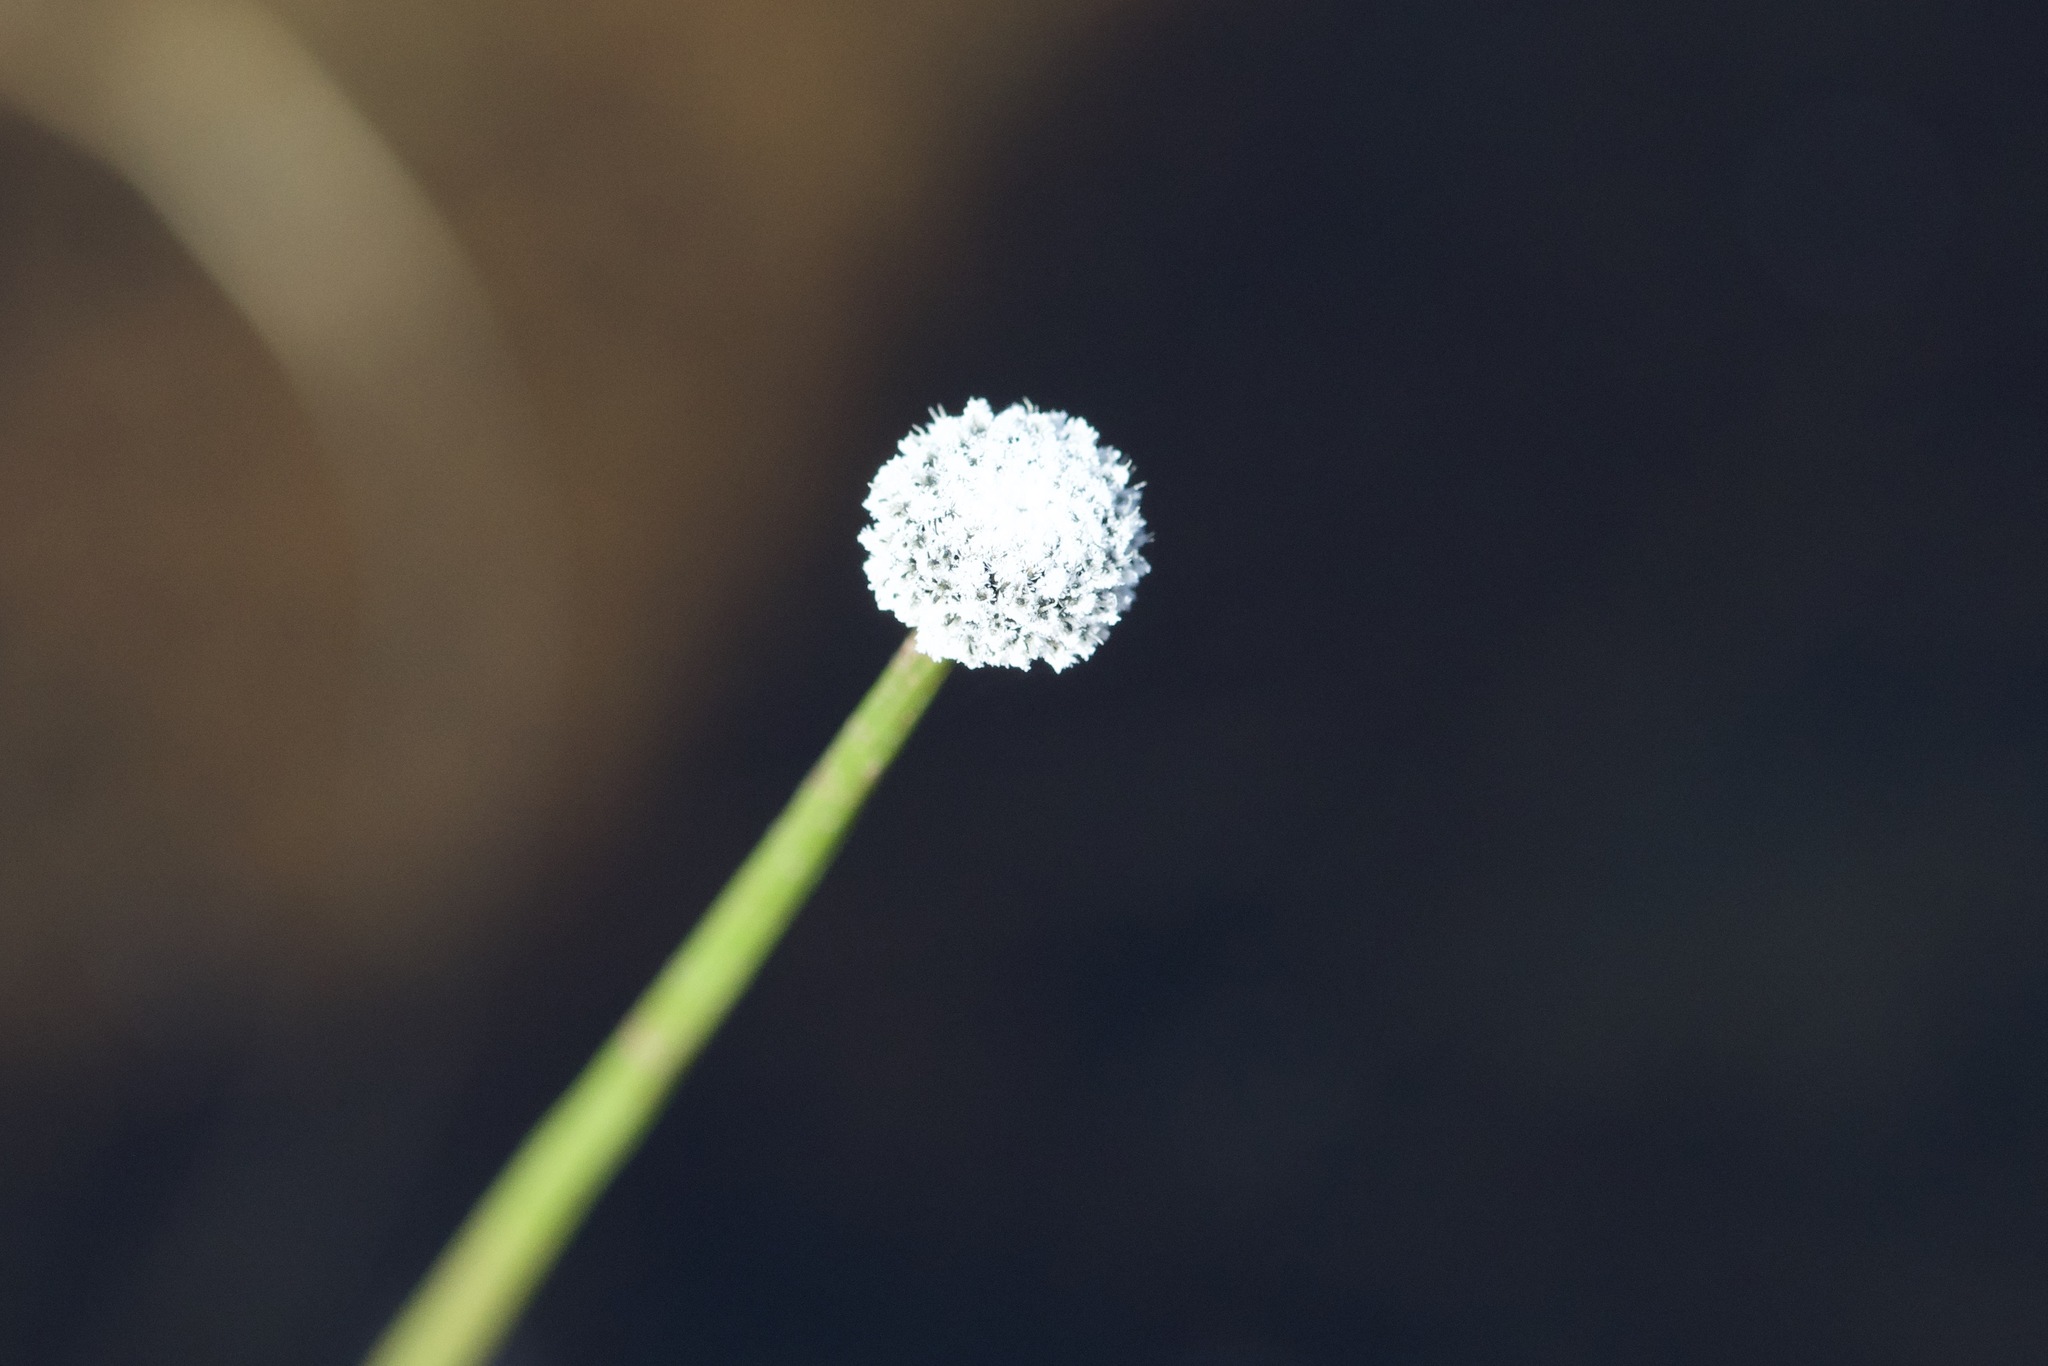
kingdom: Plantae
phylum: Tracheophyta
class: Liliopsida
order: Poales
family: Eriocaulaceae
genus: Eriocaulon
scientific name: Eriocaulon aquaticum
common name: Pipewort
